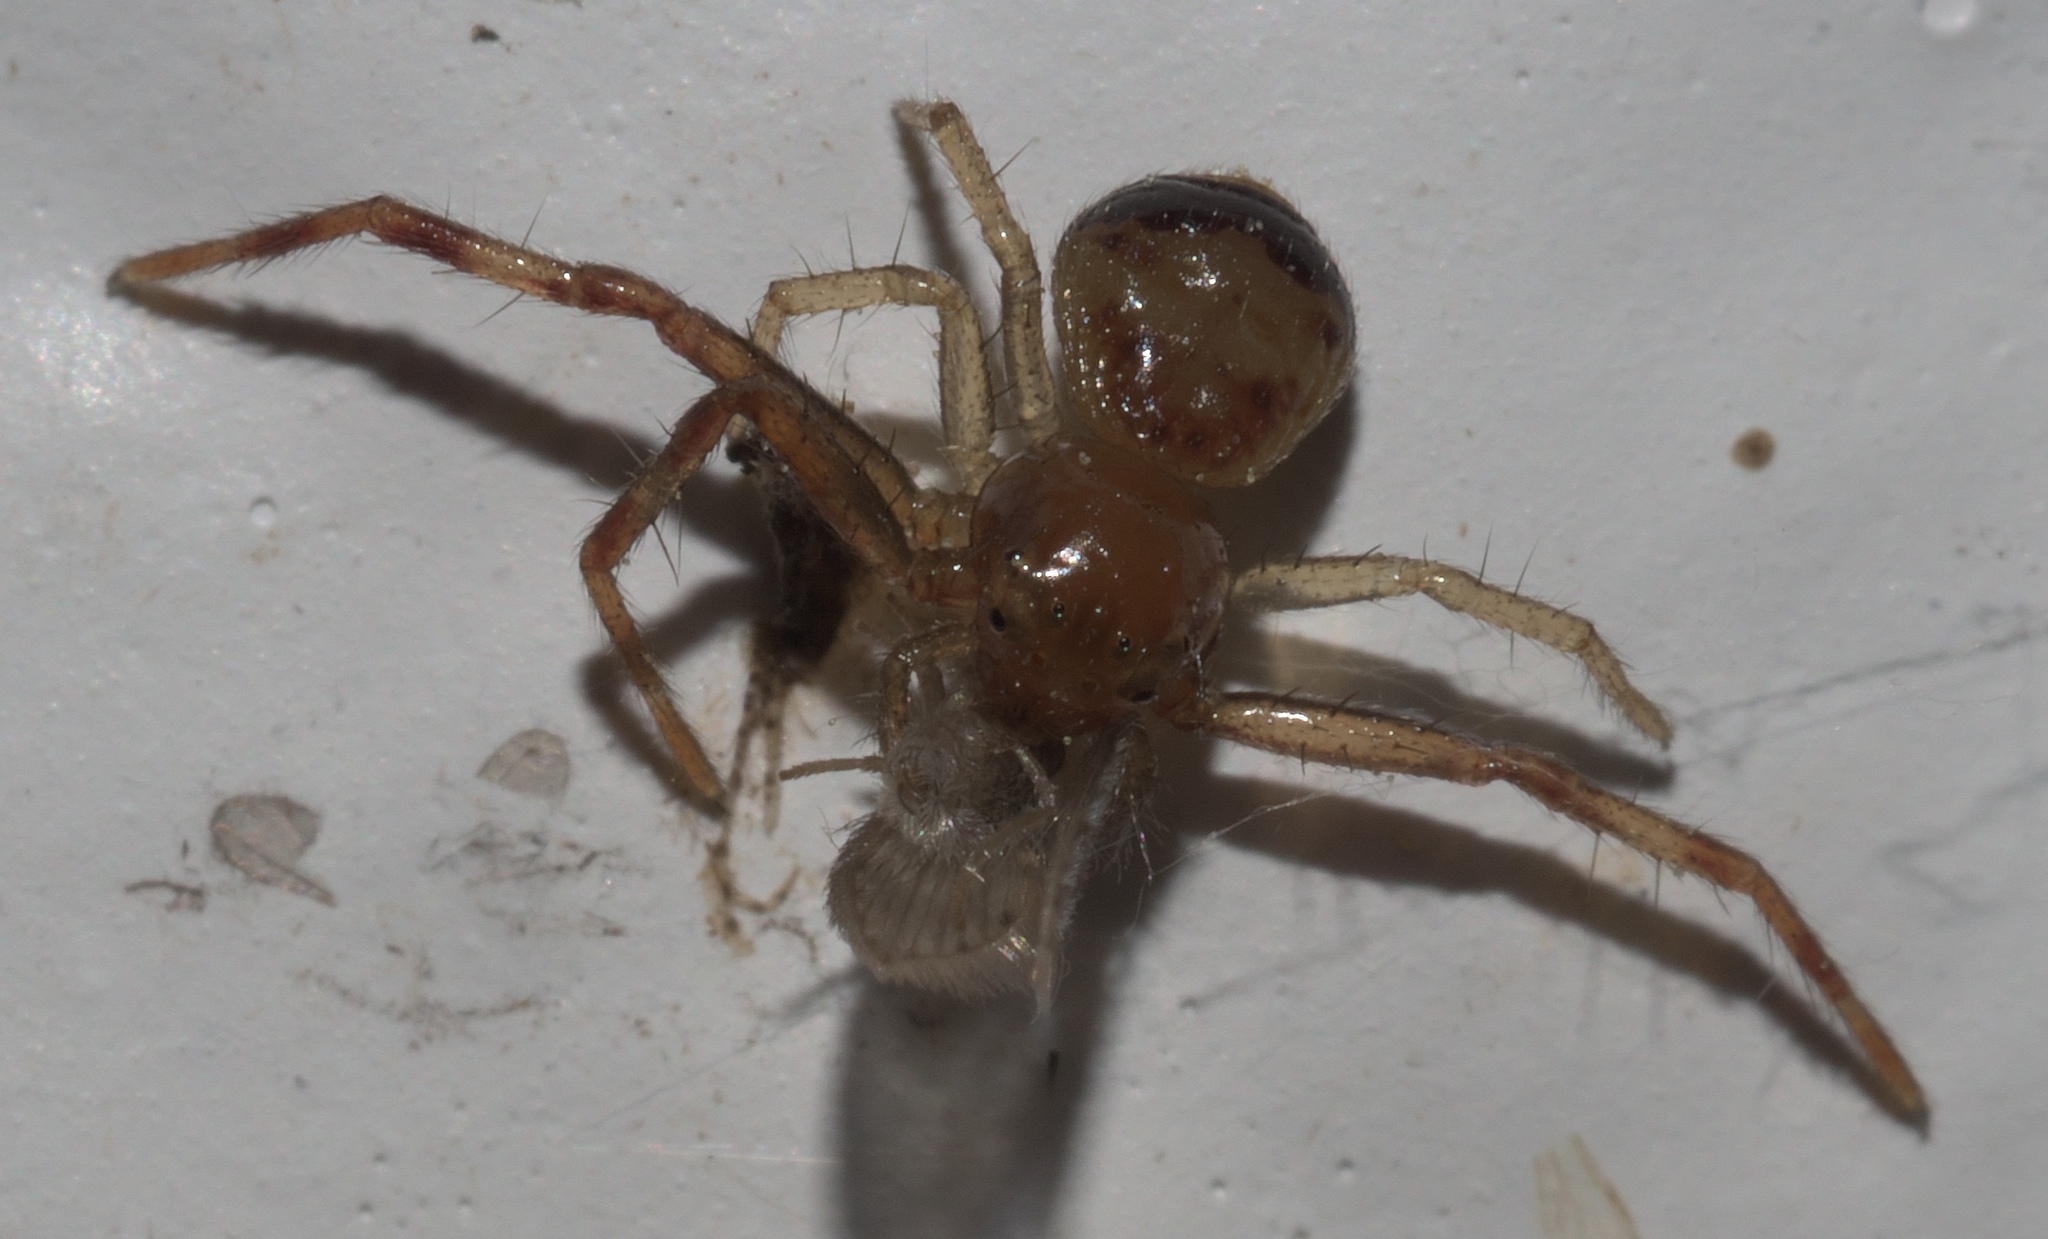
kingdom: Animalia
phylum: Arthropoda
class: Arachnida
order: Araneae
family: Thomisidae
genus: Synema
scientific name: Synema parvulum
